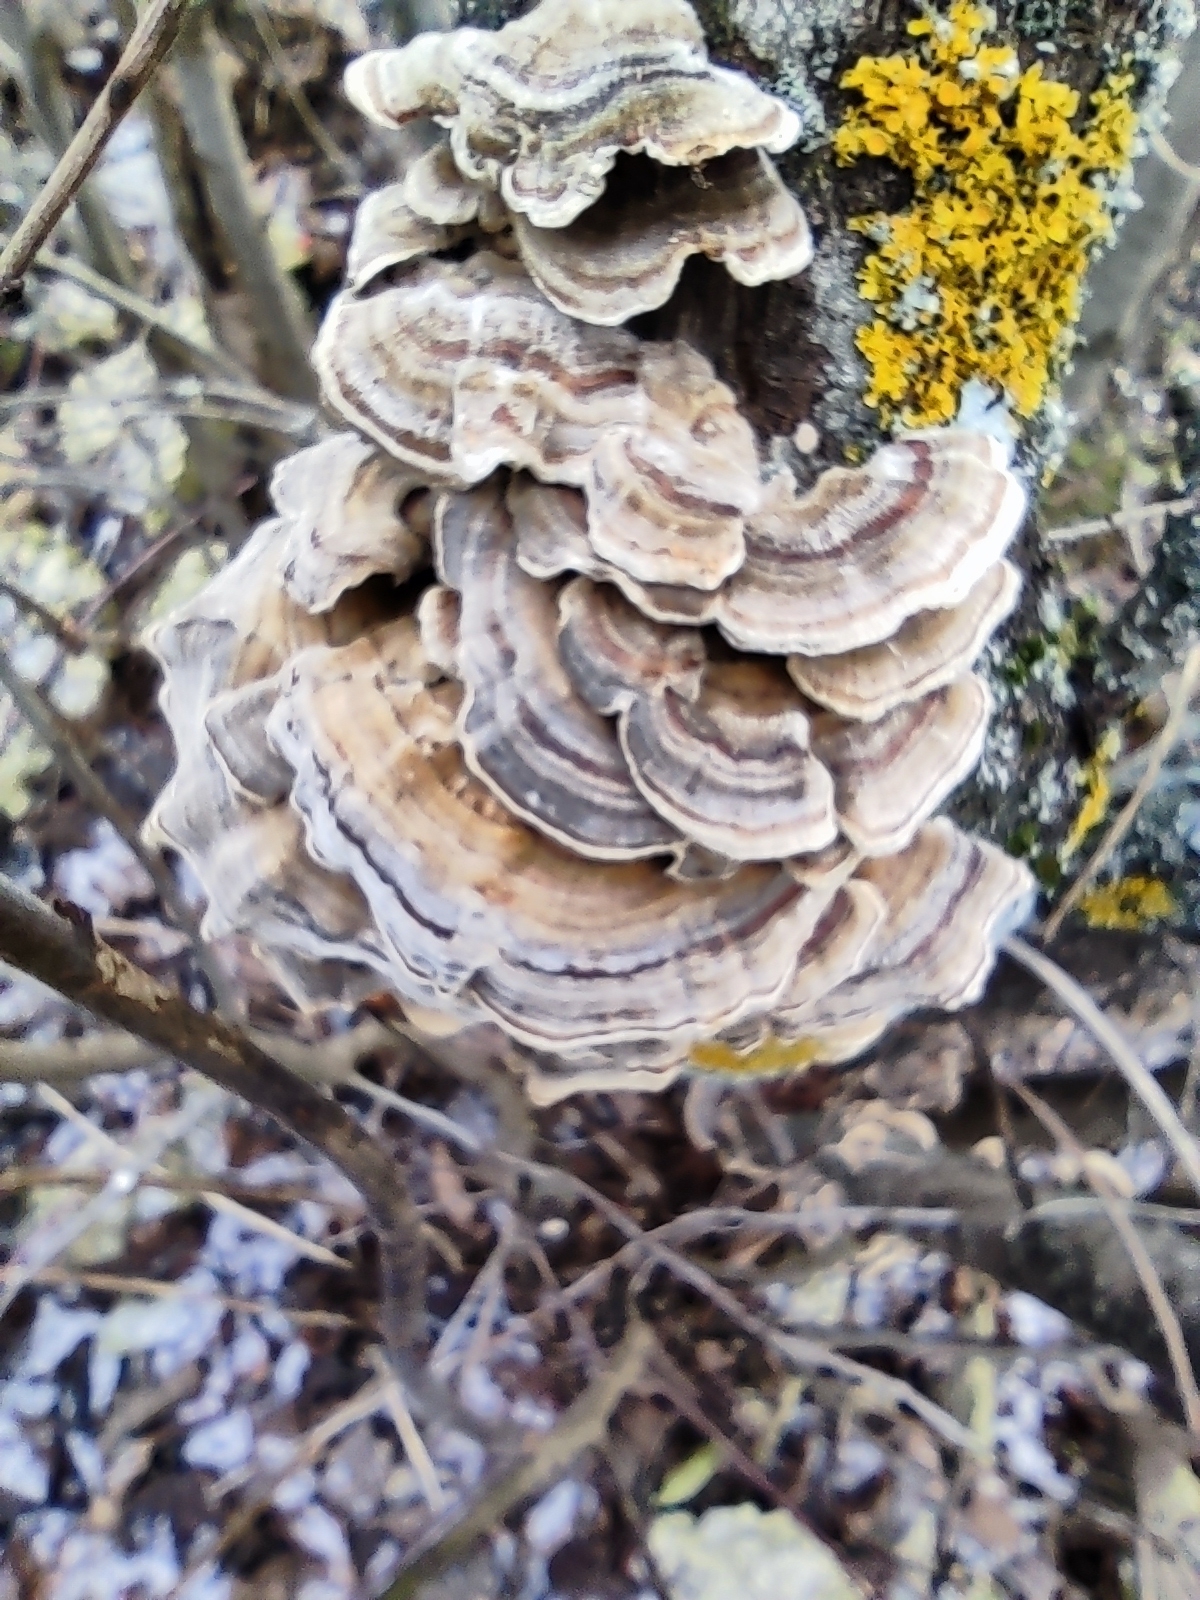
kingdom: Fungi
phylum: Basidiomycota
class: Agaricomycetes
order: Polyporales
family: Polyporaceae
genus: Trametes
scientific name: Trametes versicolor
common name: Turkeytail
